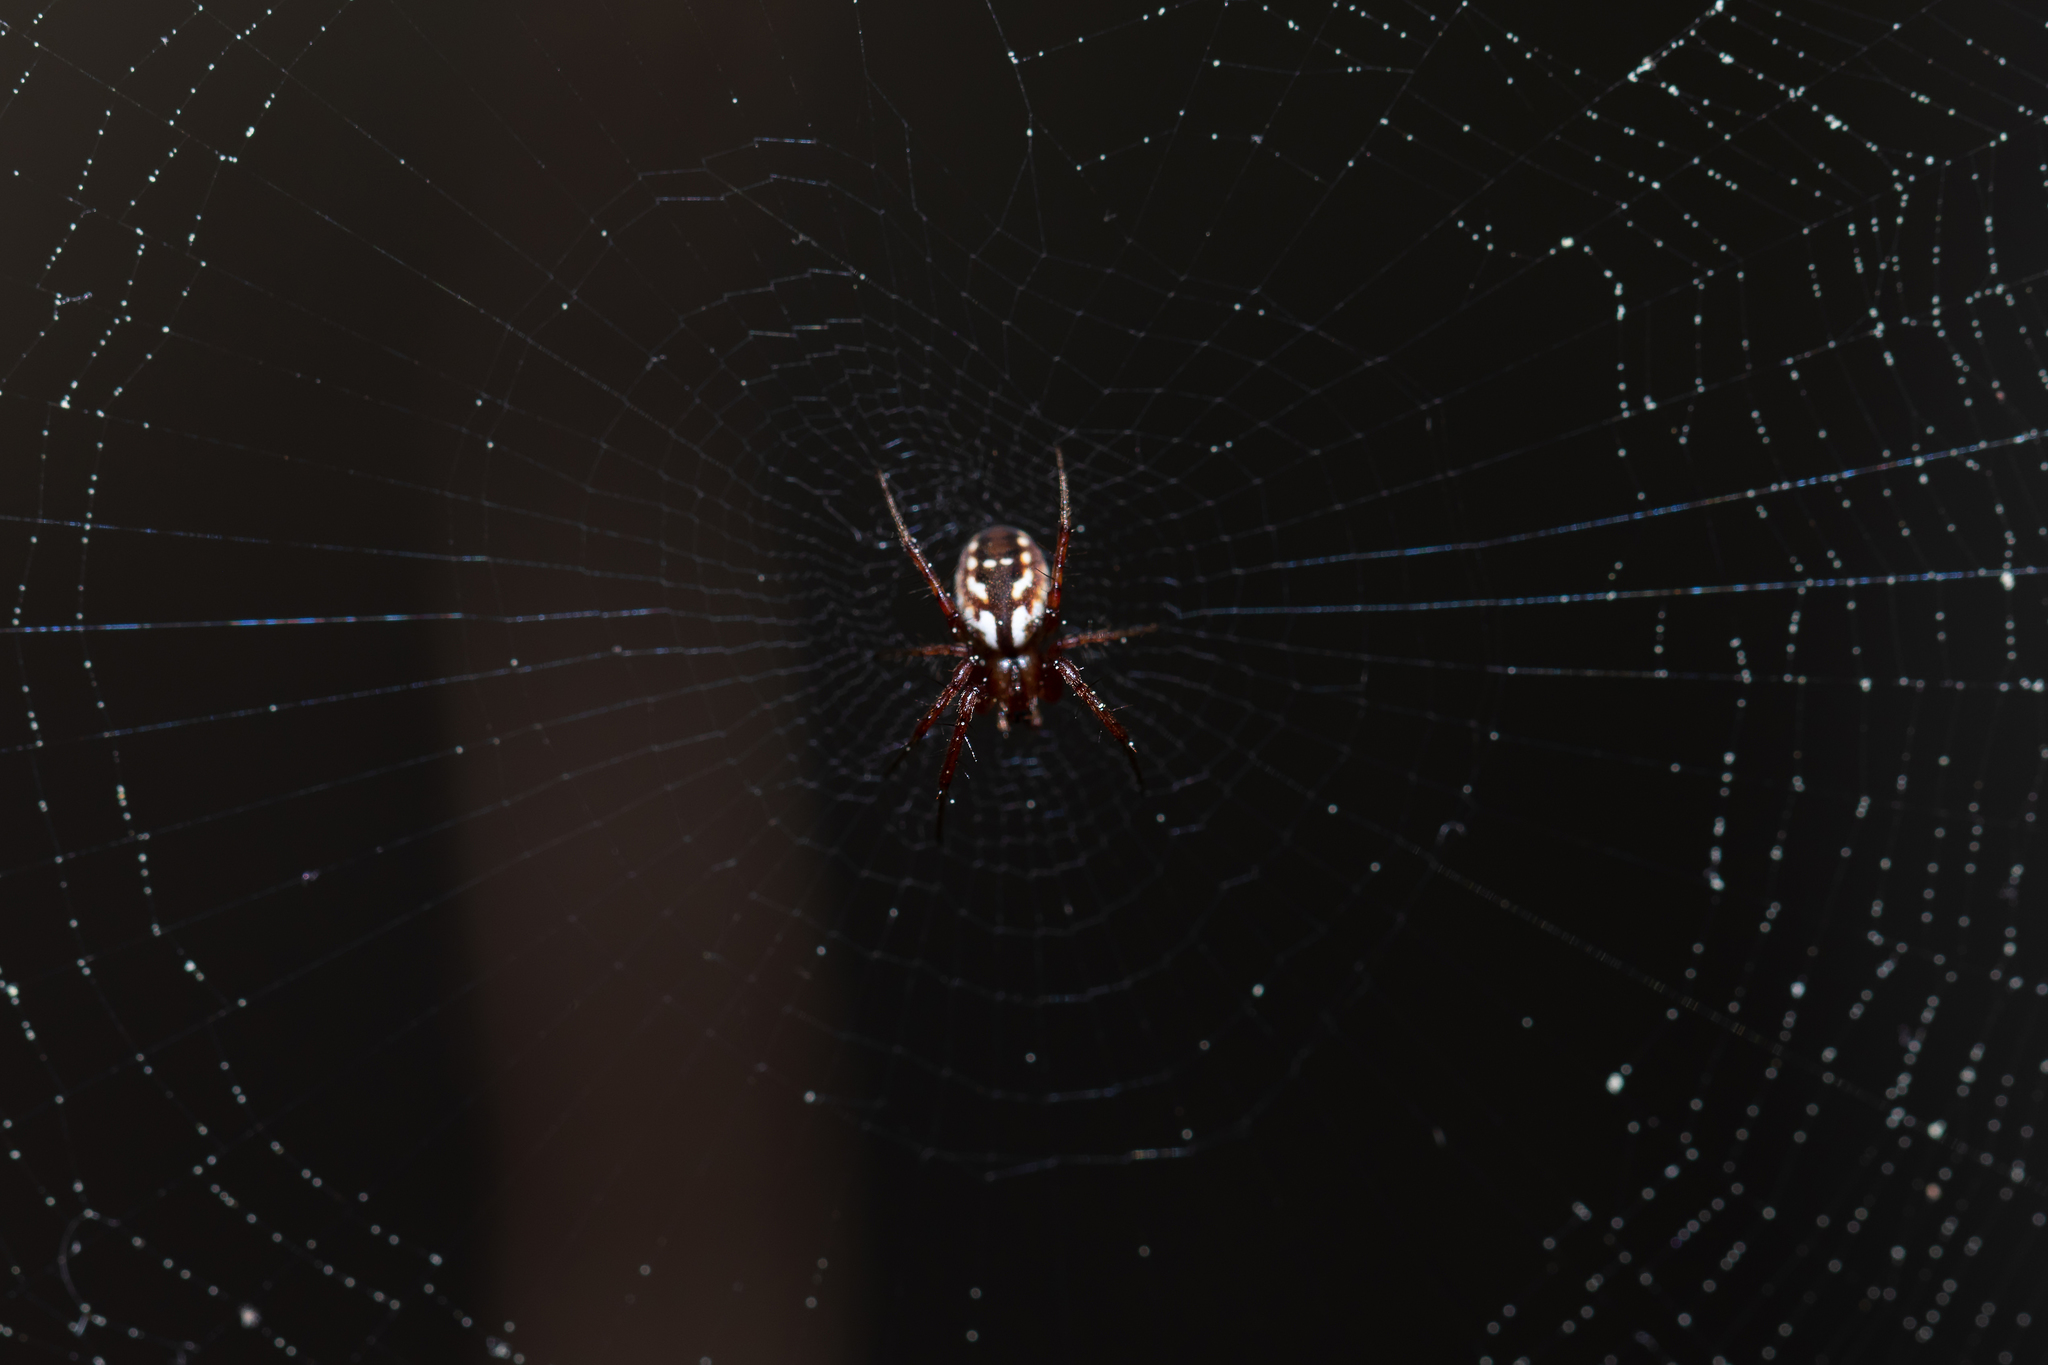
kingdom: Animalia
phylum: Arthropoda
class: Arachnida
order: Araneae
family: Araneidae
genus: Mangora
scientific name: Mangora placida
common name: Tuft-legged orbweaver
